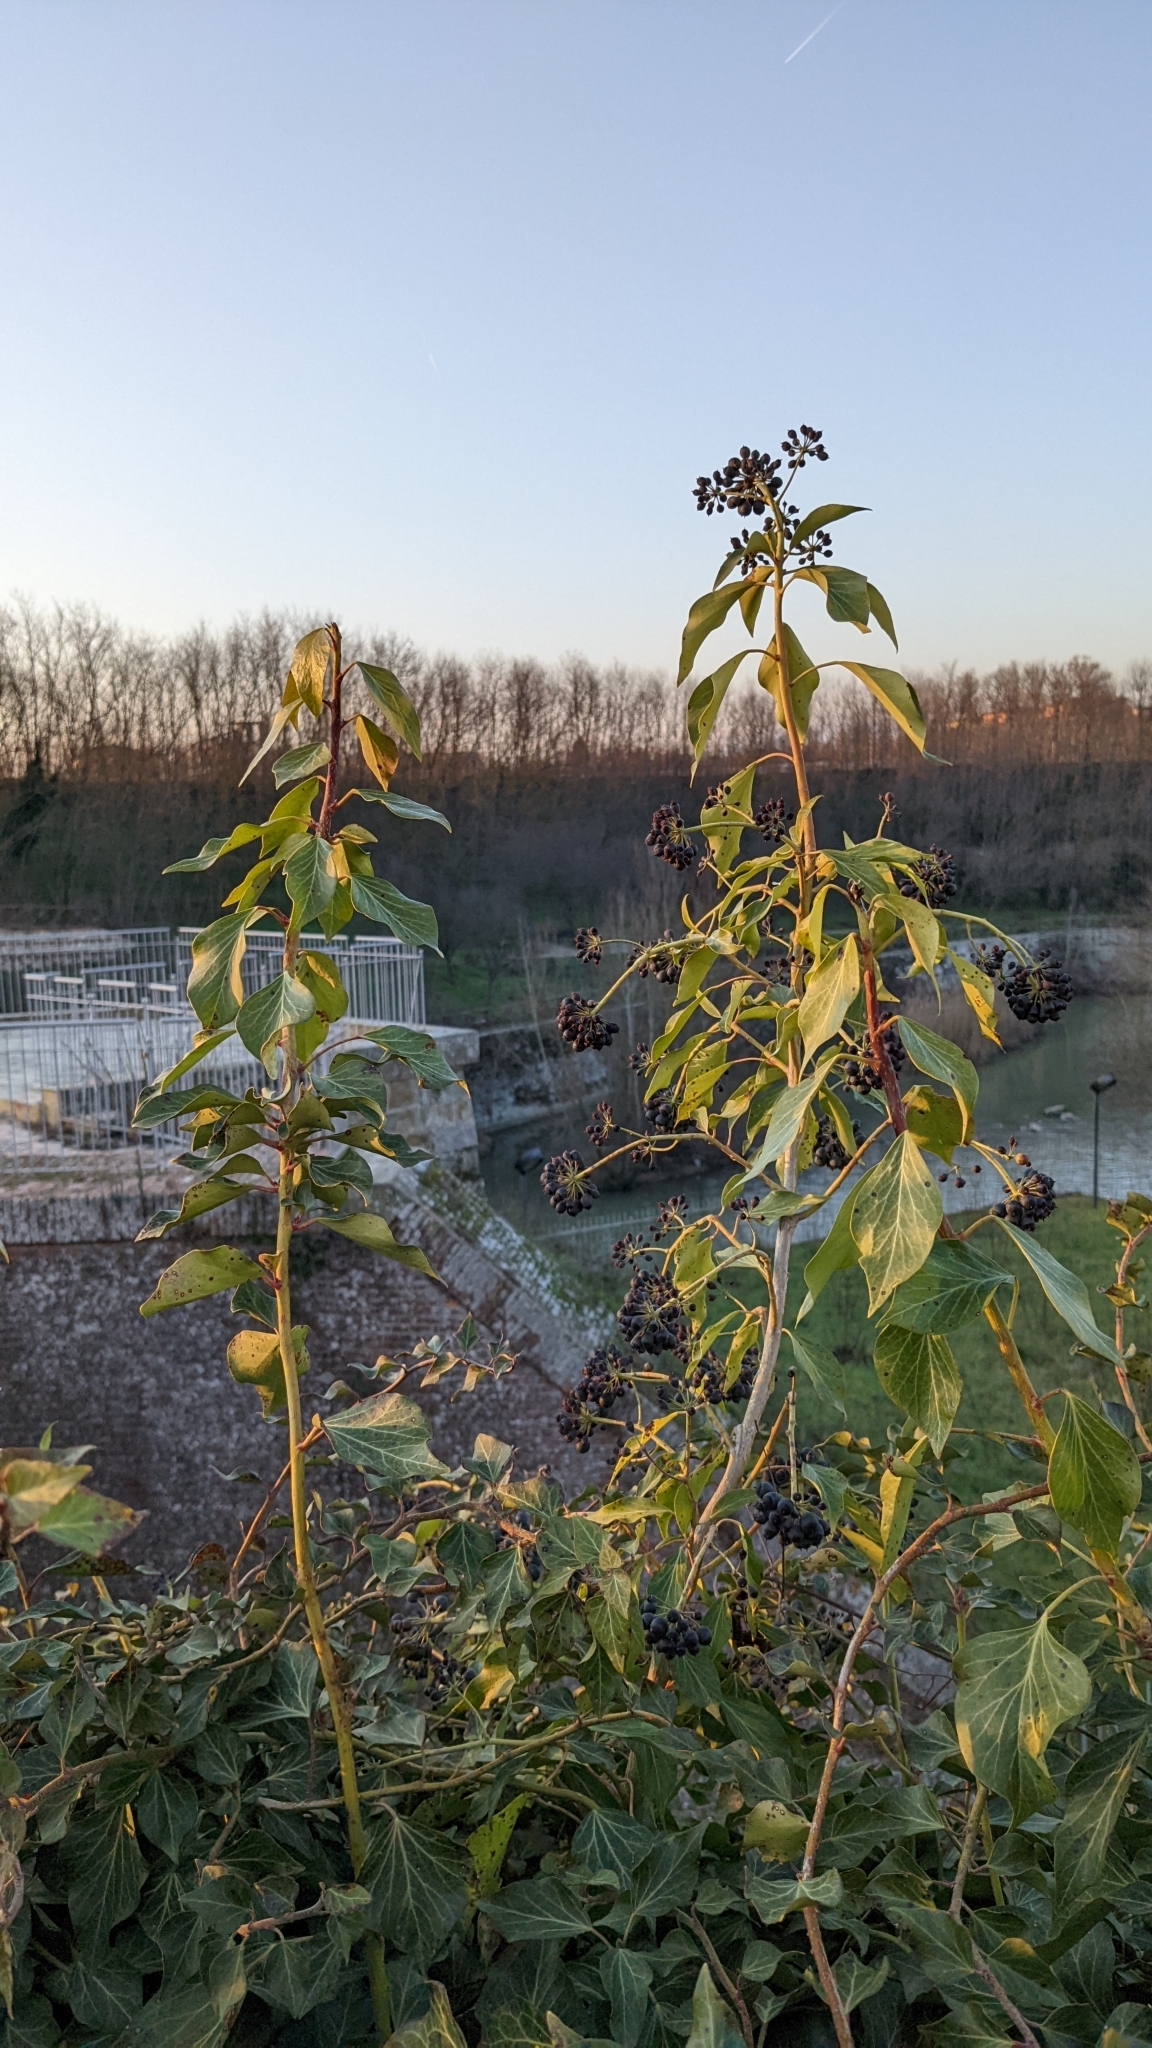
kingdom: Plantae
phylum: Tracheophyta
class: Magnoliopsida
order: Apiales
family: Araliaceae
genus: Hedera
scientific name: Hedera helix
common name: Ivy
